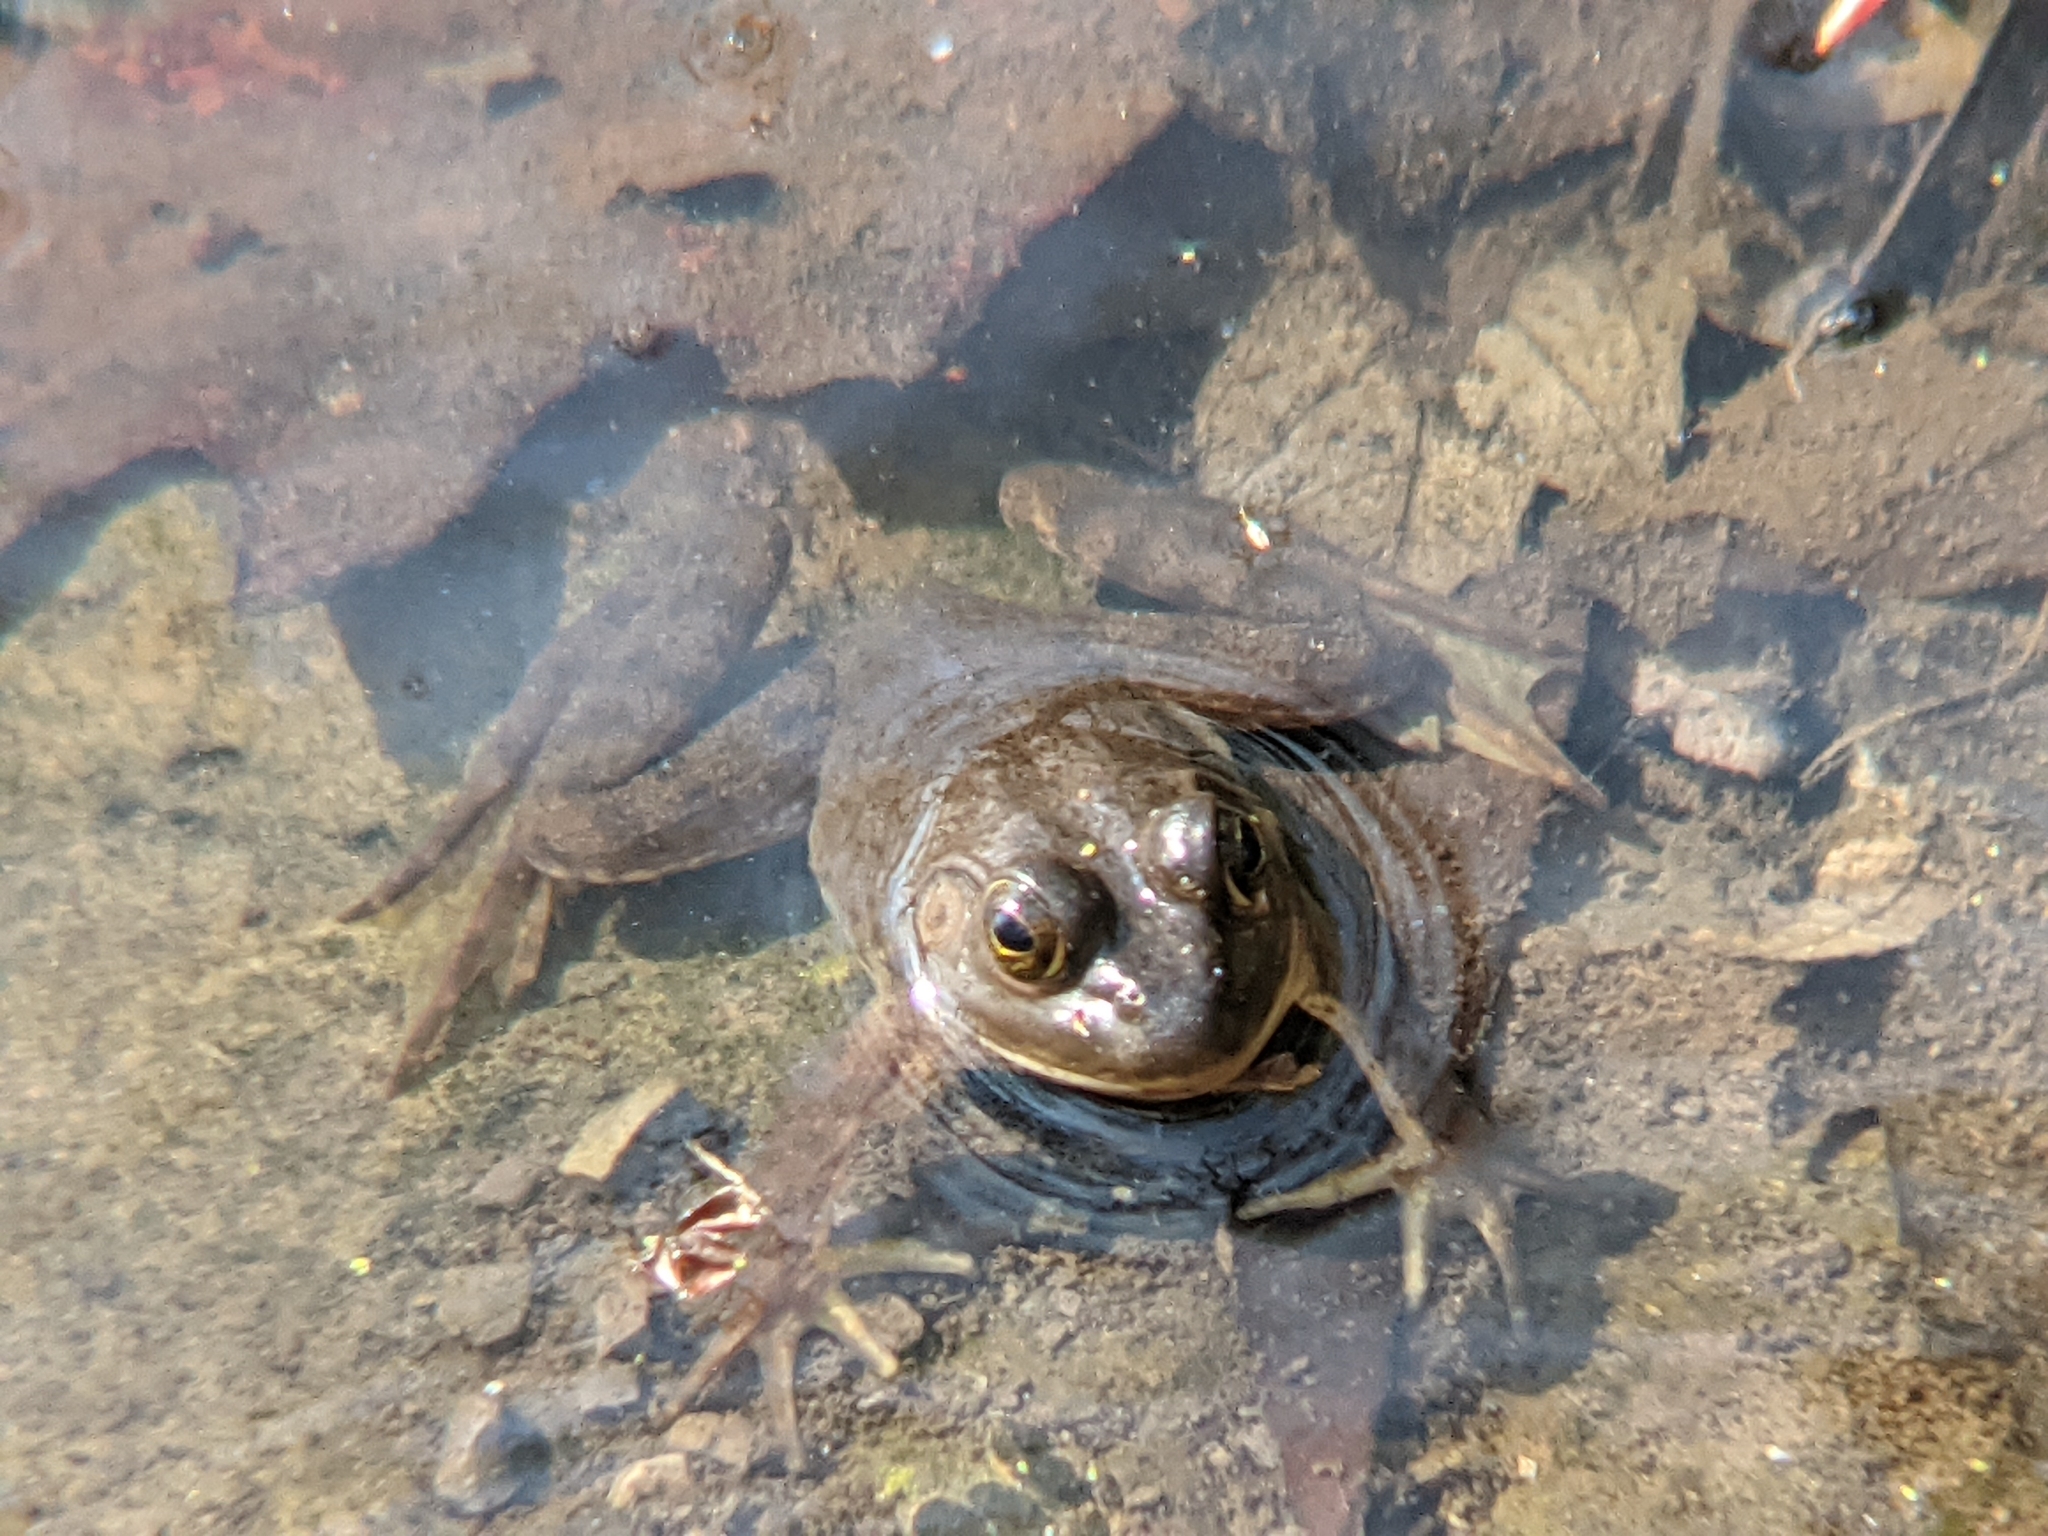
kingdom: Animalia
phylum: Chordata
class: Amphibia
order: Anura
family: Ranidae
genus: Lithobates
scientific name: Lithobates catesbeianus
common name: American bullfrog
